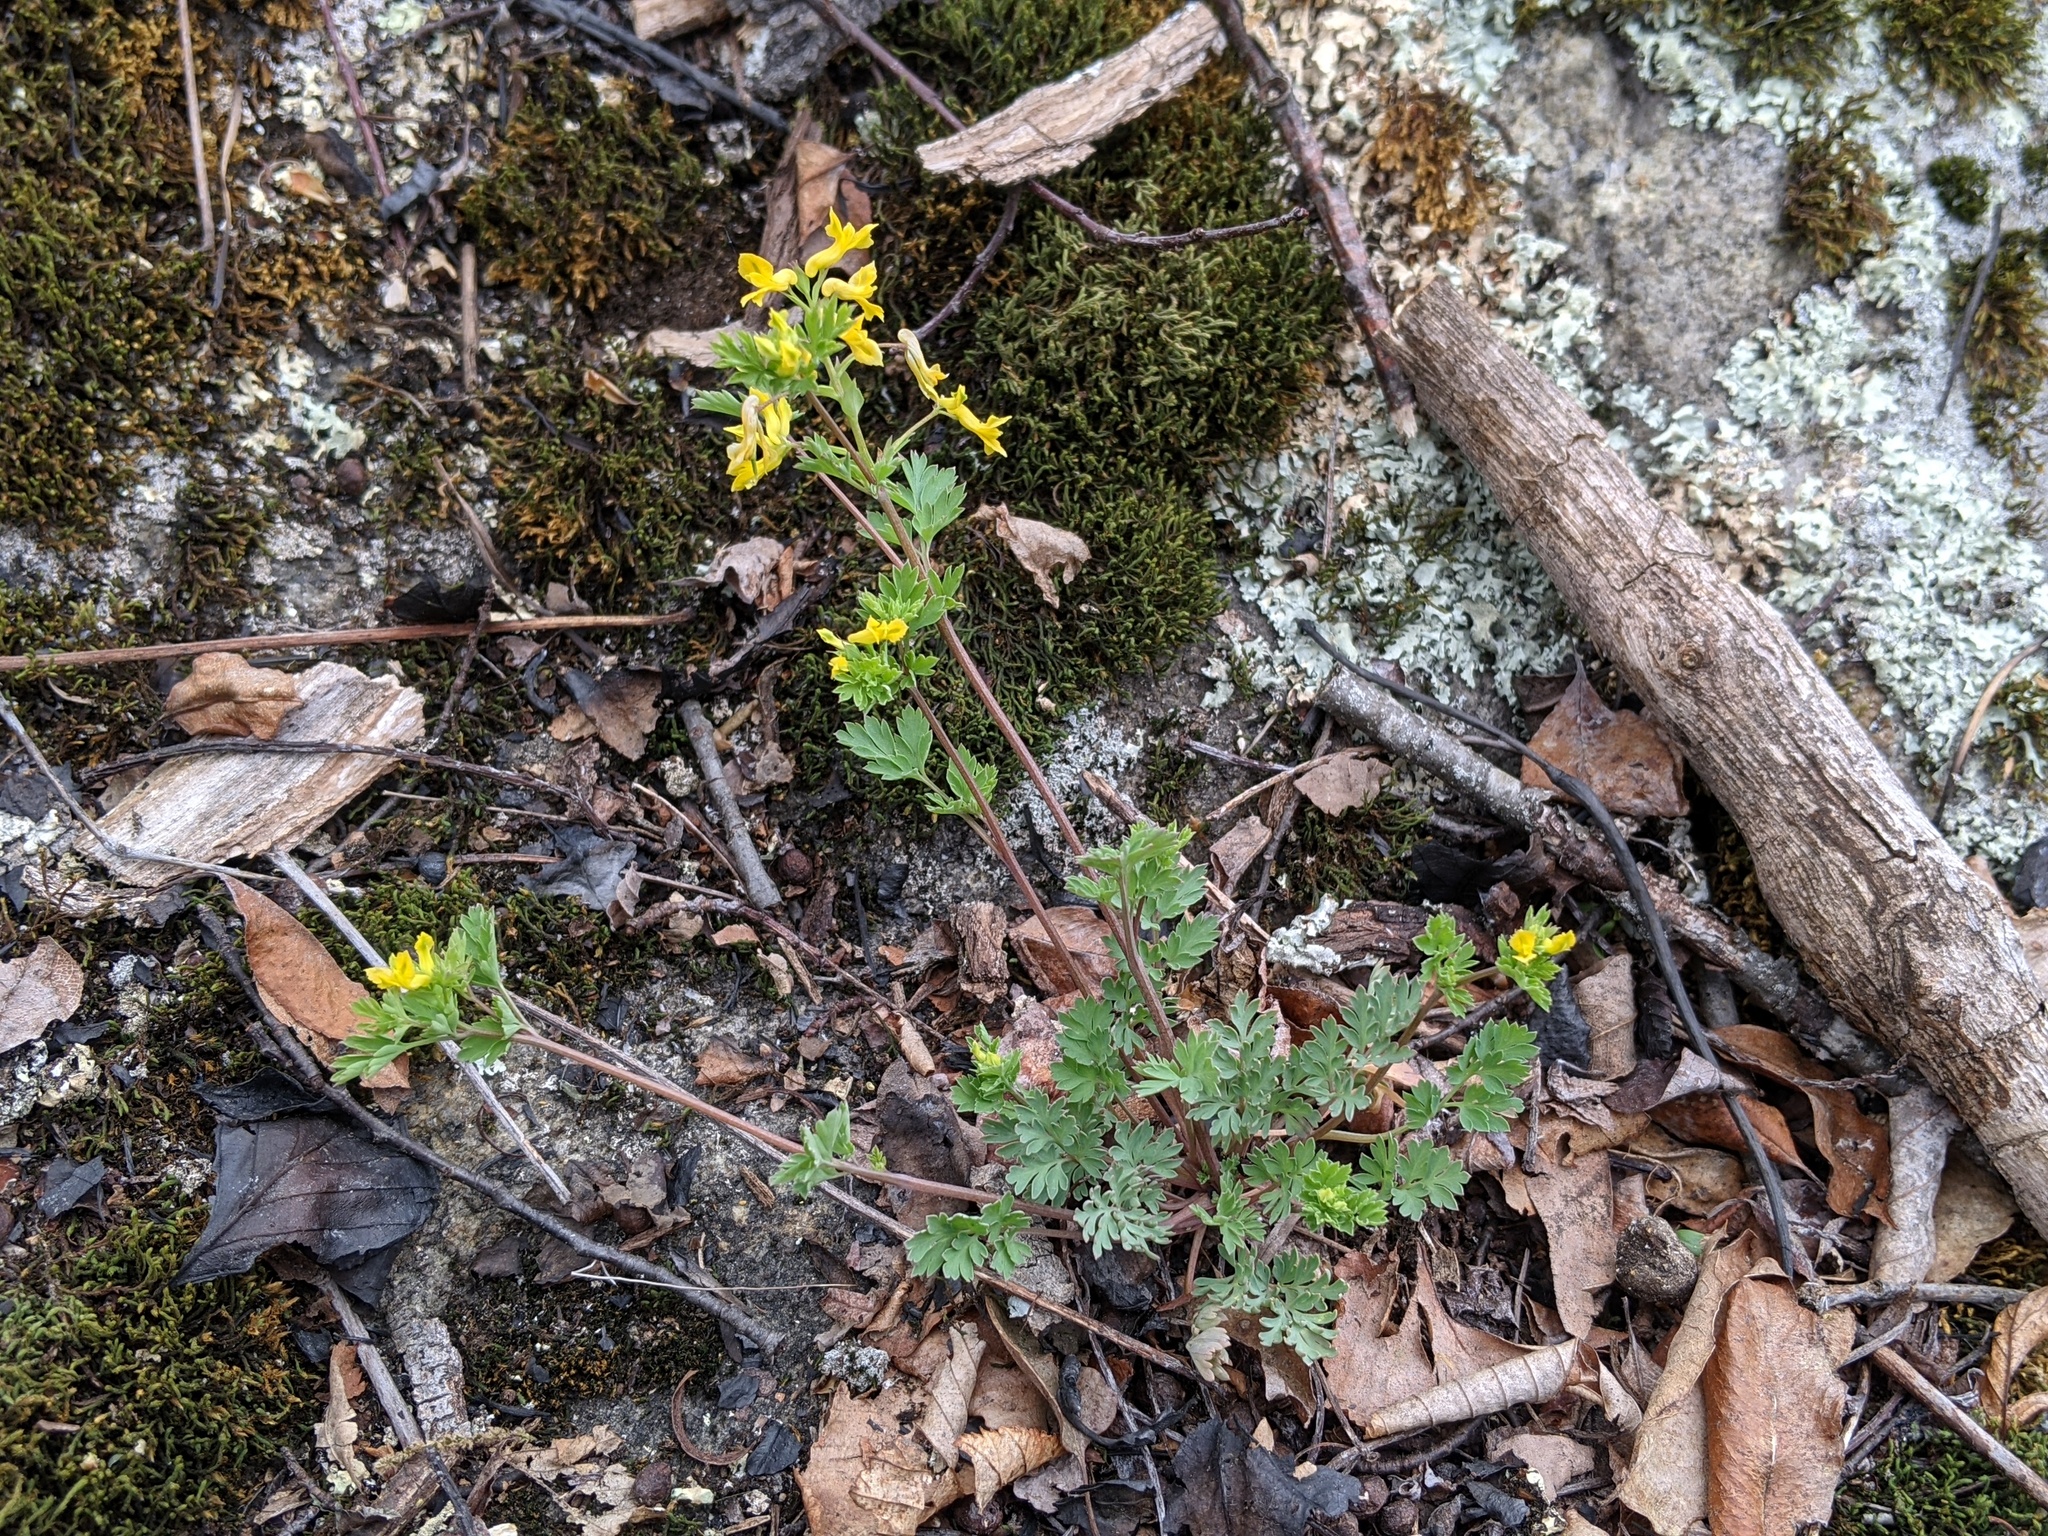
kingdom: Plantae
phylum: Tracheophyta
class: Magnoliopsida
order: Ranunculales
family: Papaveraceae
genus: Corydalis
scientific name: Corydalis flavula
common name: Yellow corydalis
